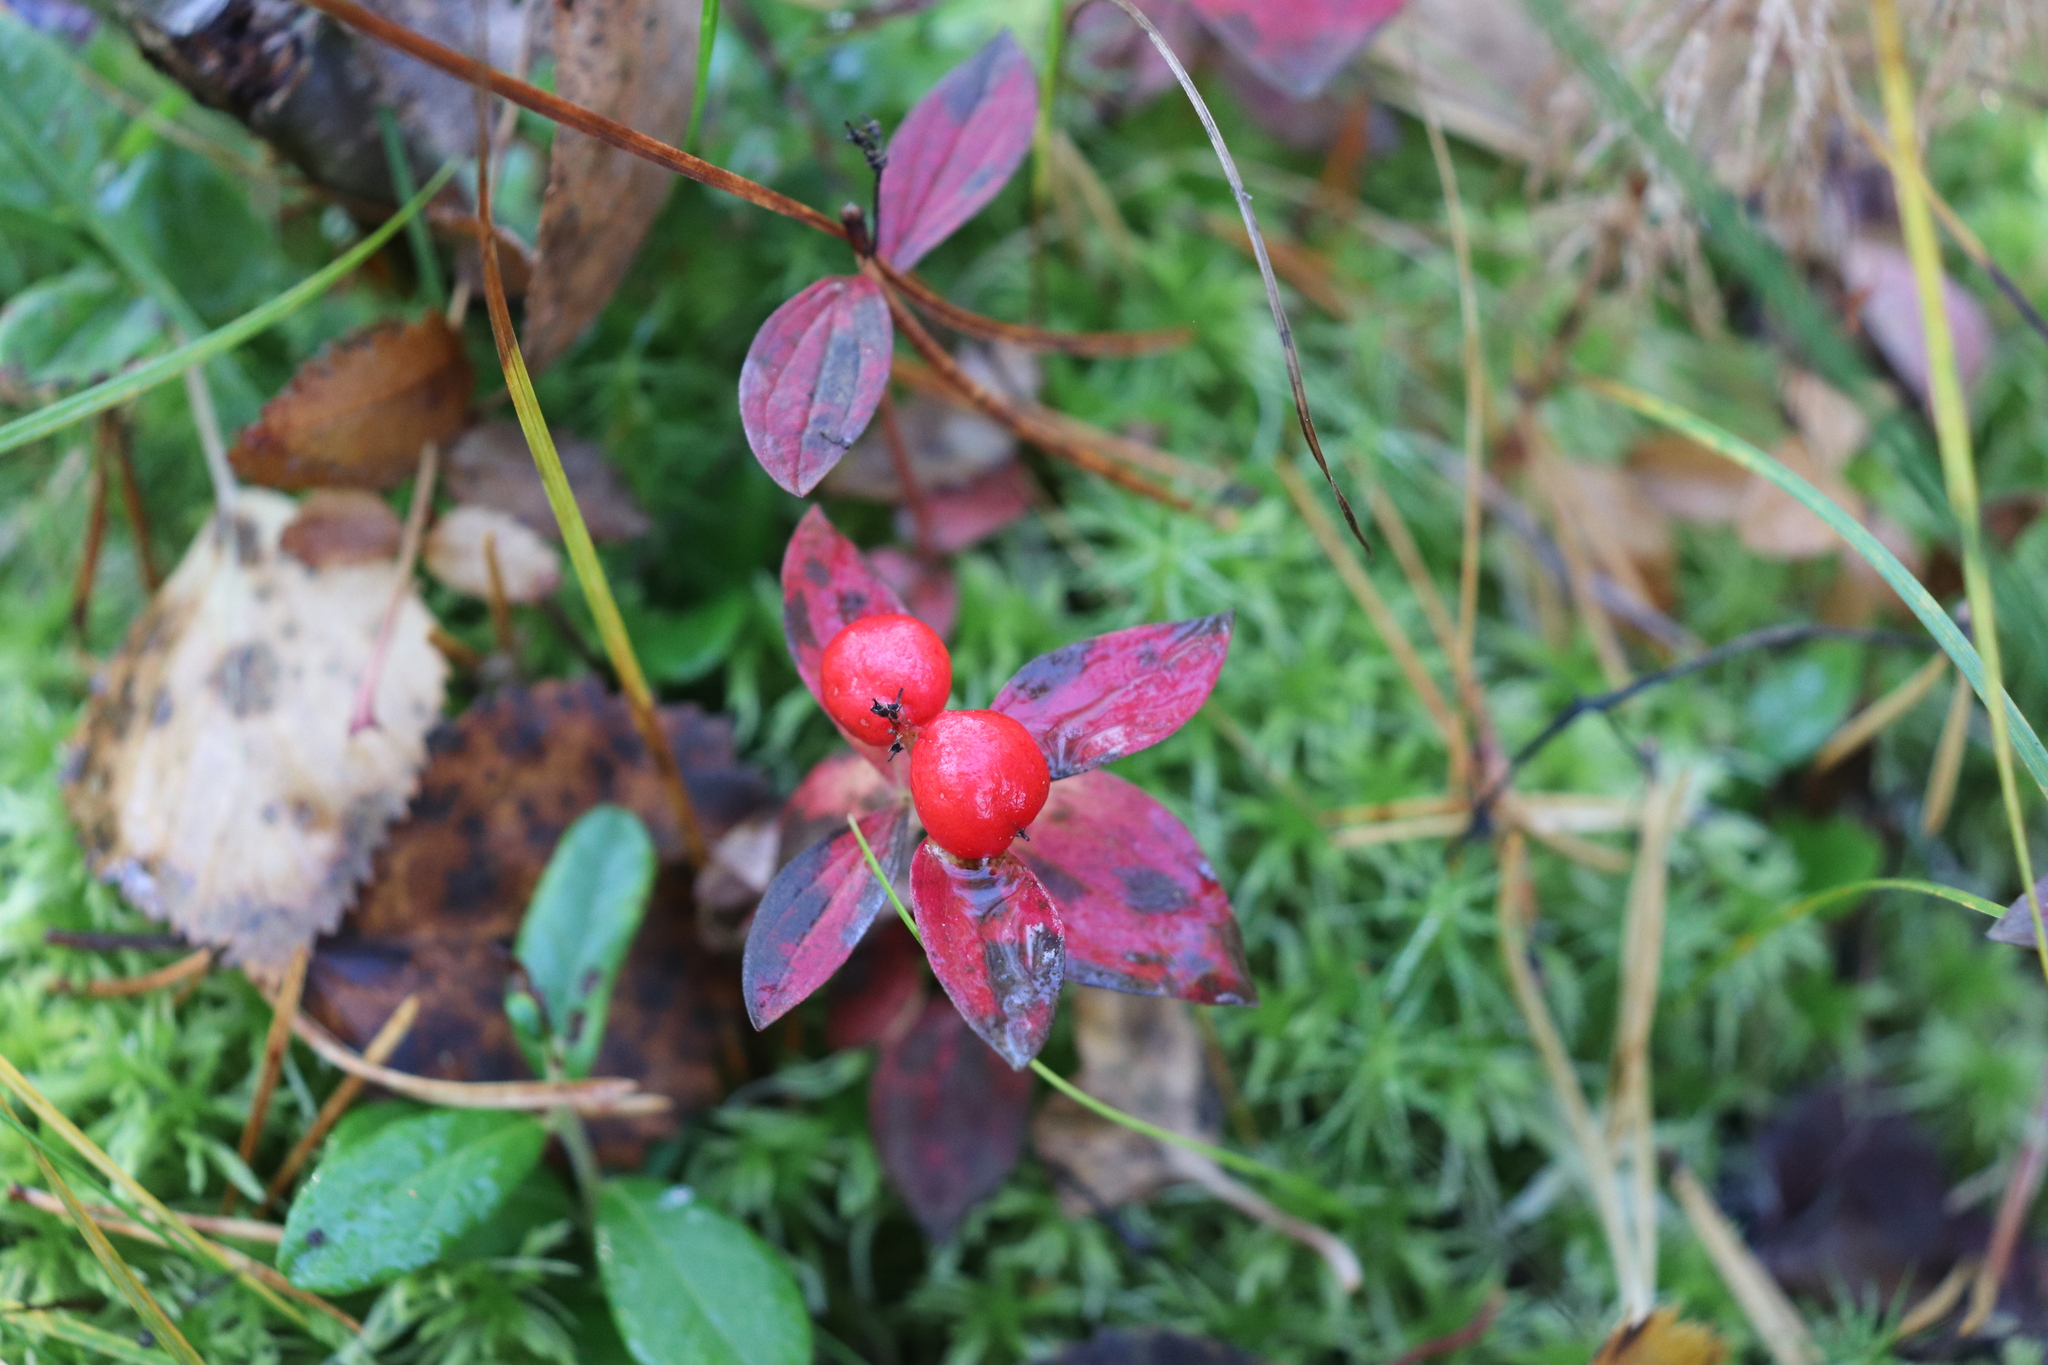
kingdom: Plantae
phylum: Tracheophyta
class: Magnoliopsida
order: Cornales
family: Cornaceae
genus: Cornus
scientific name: Cornus suecica
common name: Dwarf cornel
